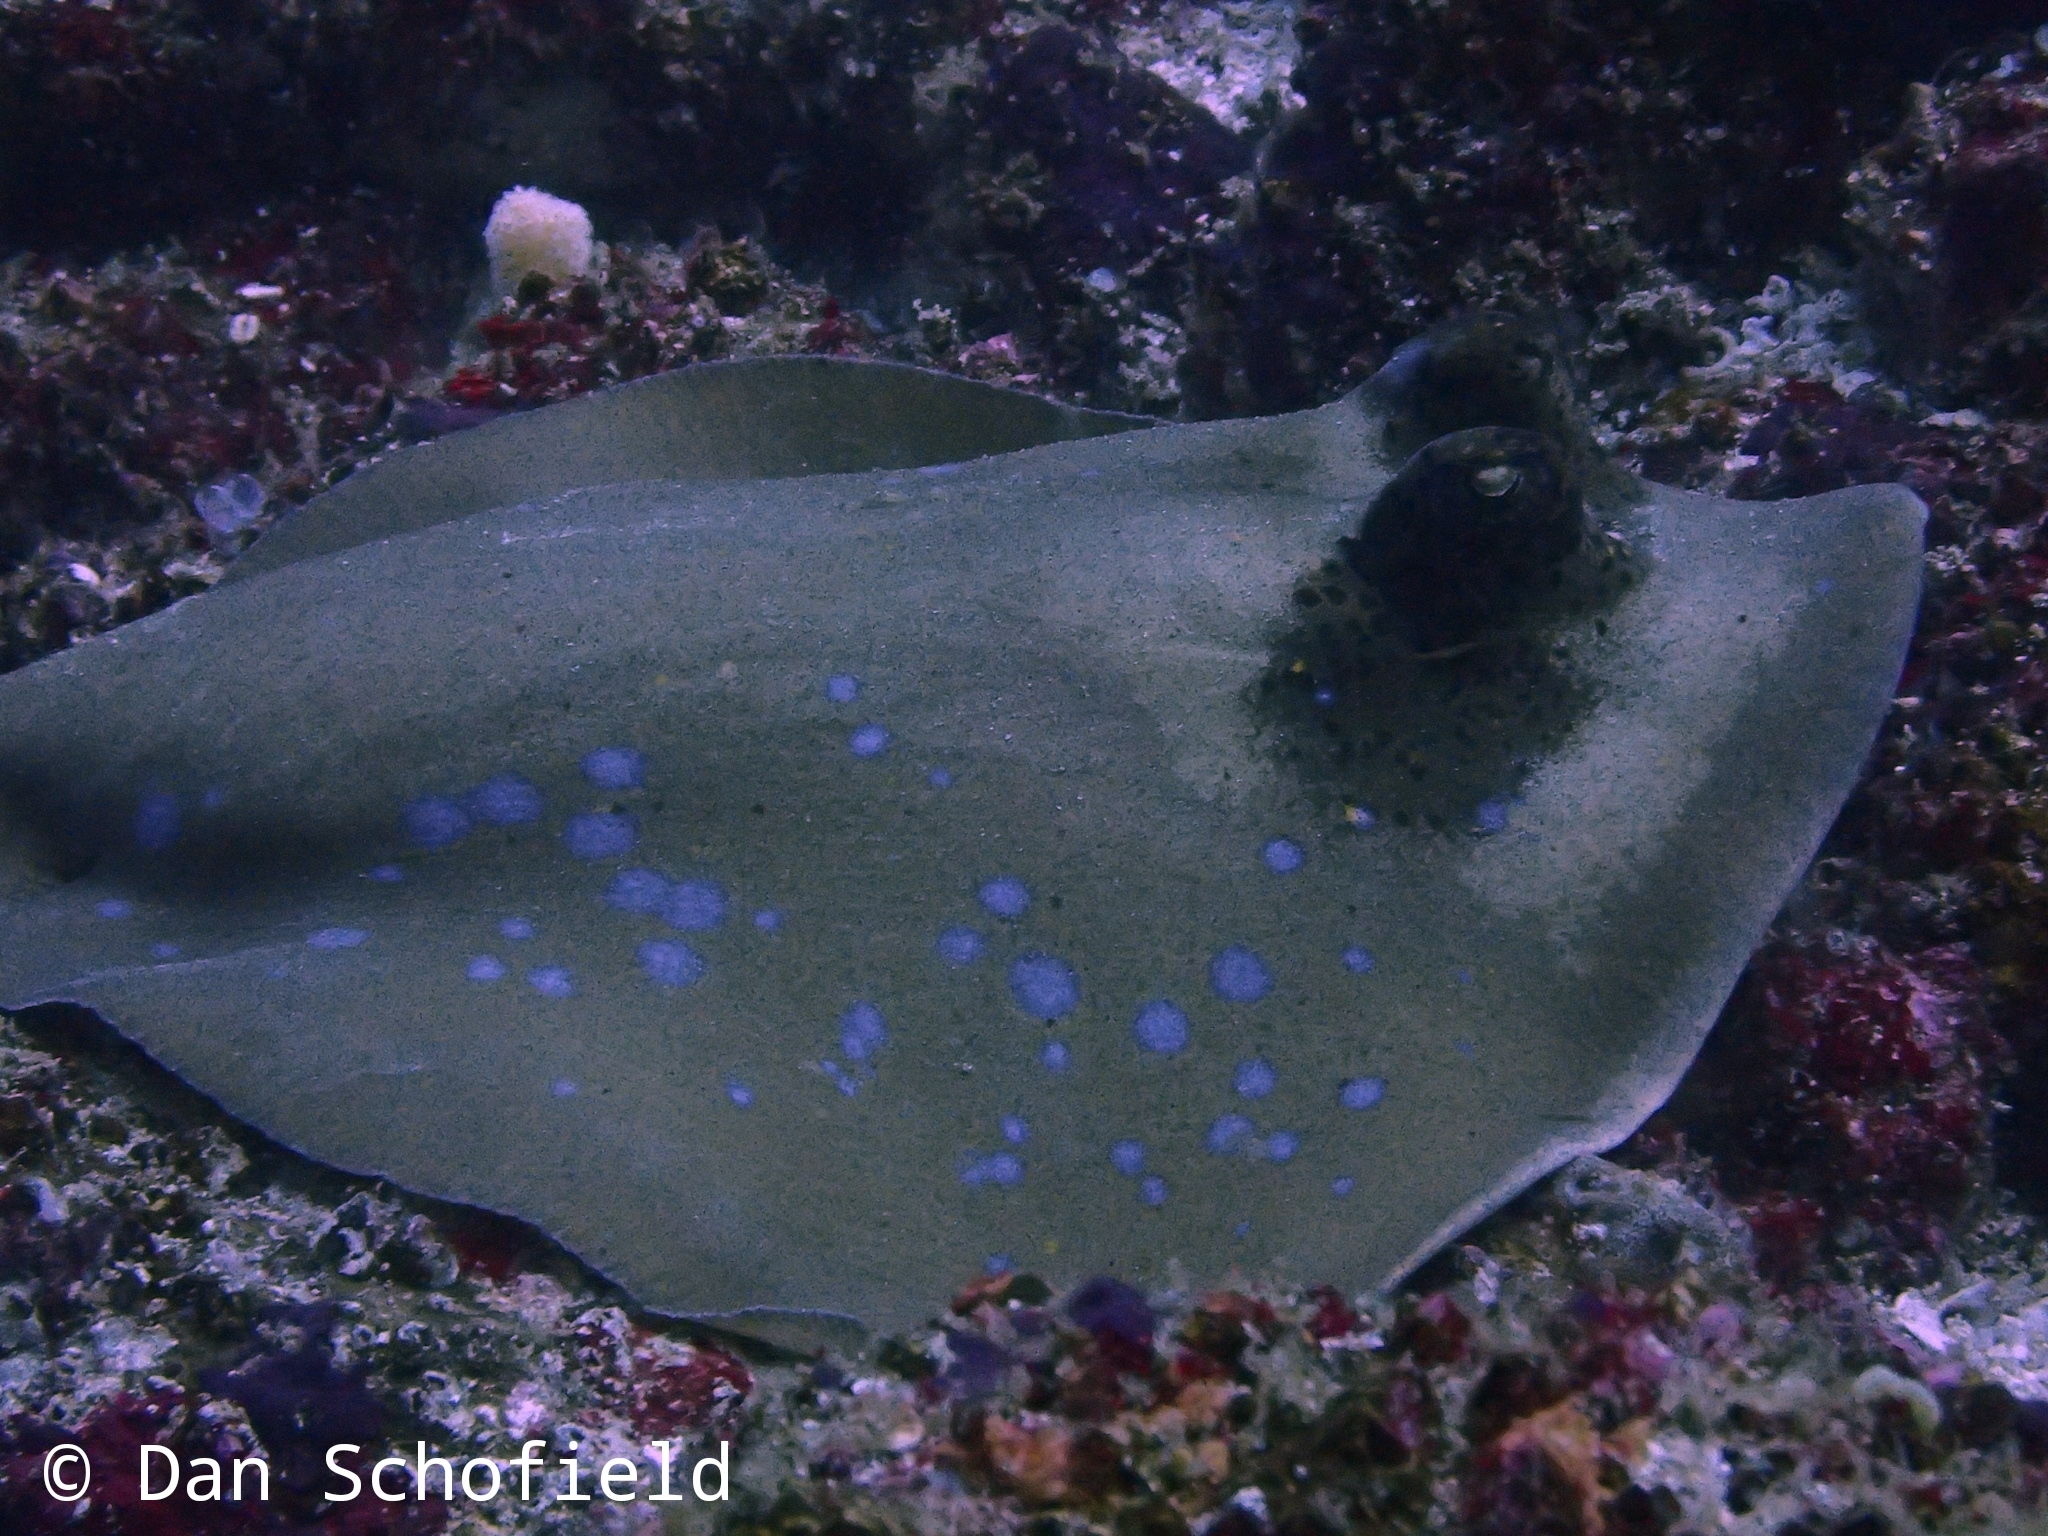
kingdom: Animalia
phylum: Chordata
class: Elasmobranchii
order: Myliobatiformes
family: Dasyatidae
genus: Neotrygon
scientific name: Neotrygon australiae
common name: Australian bluespotted maskray
